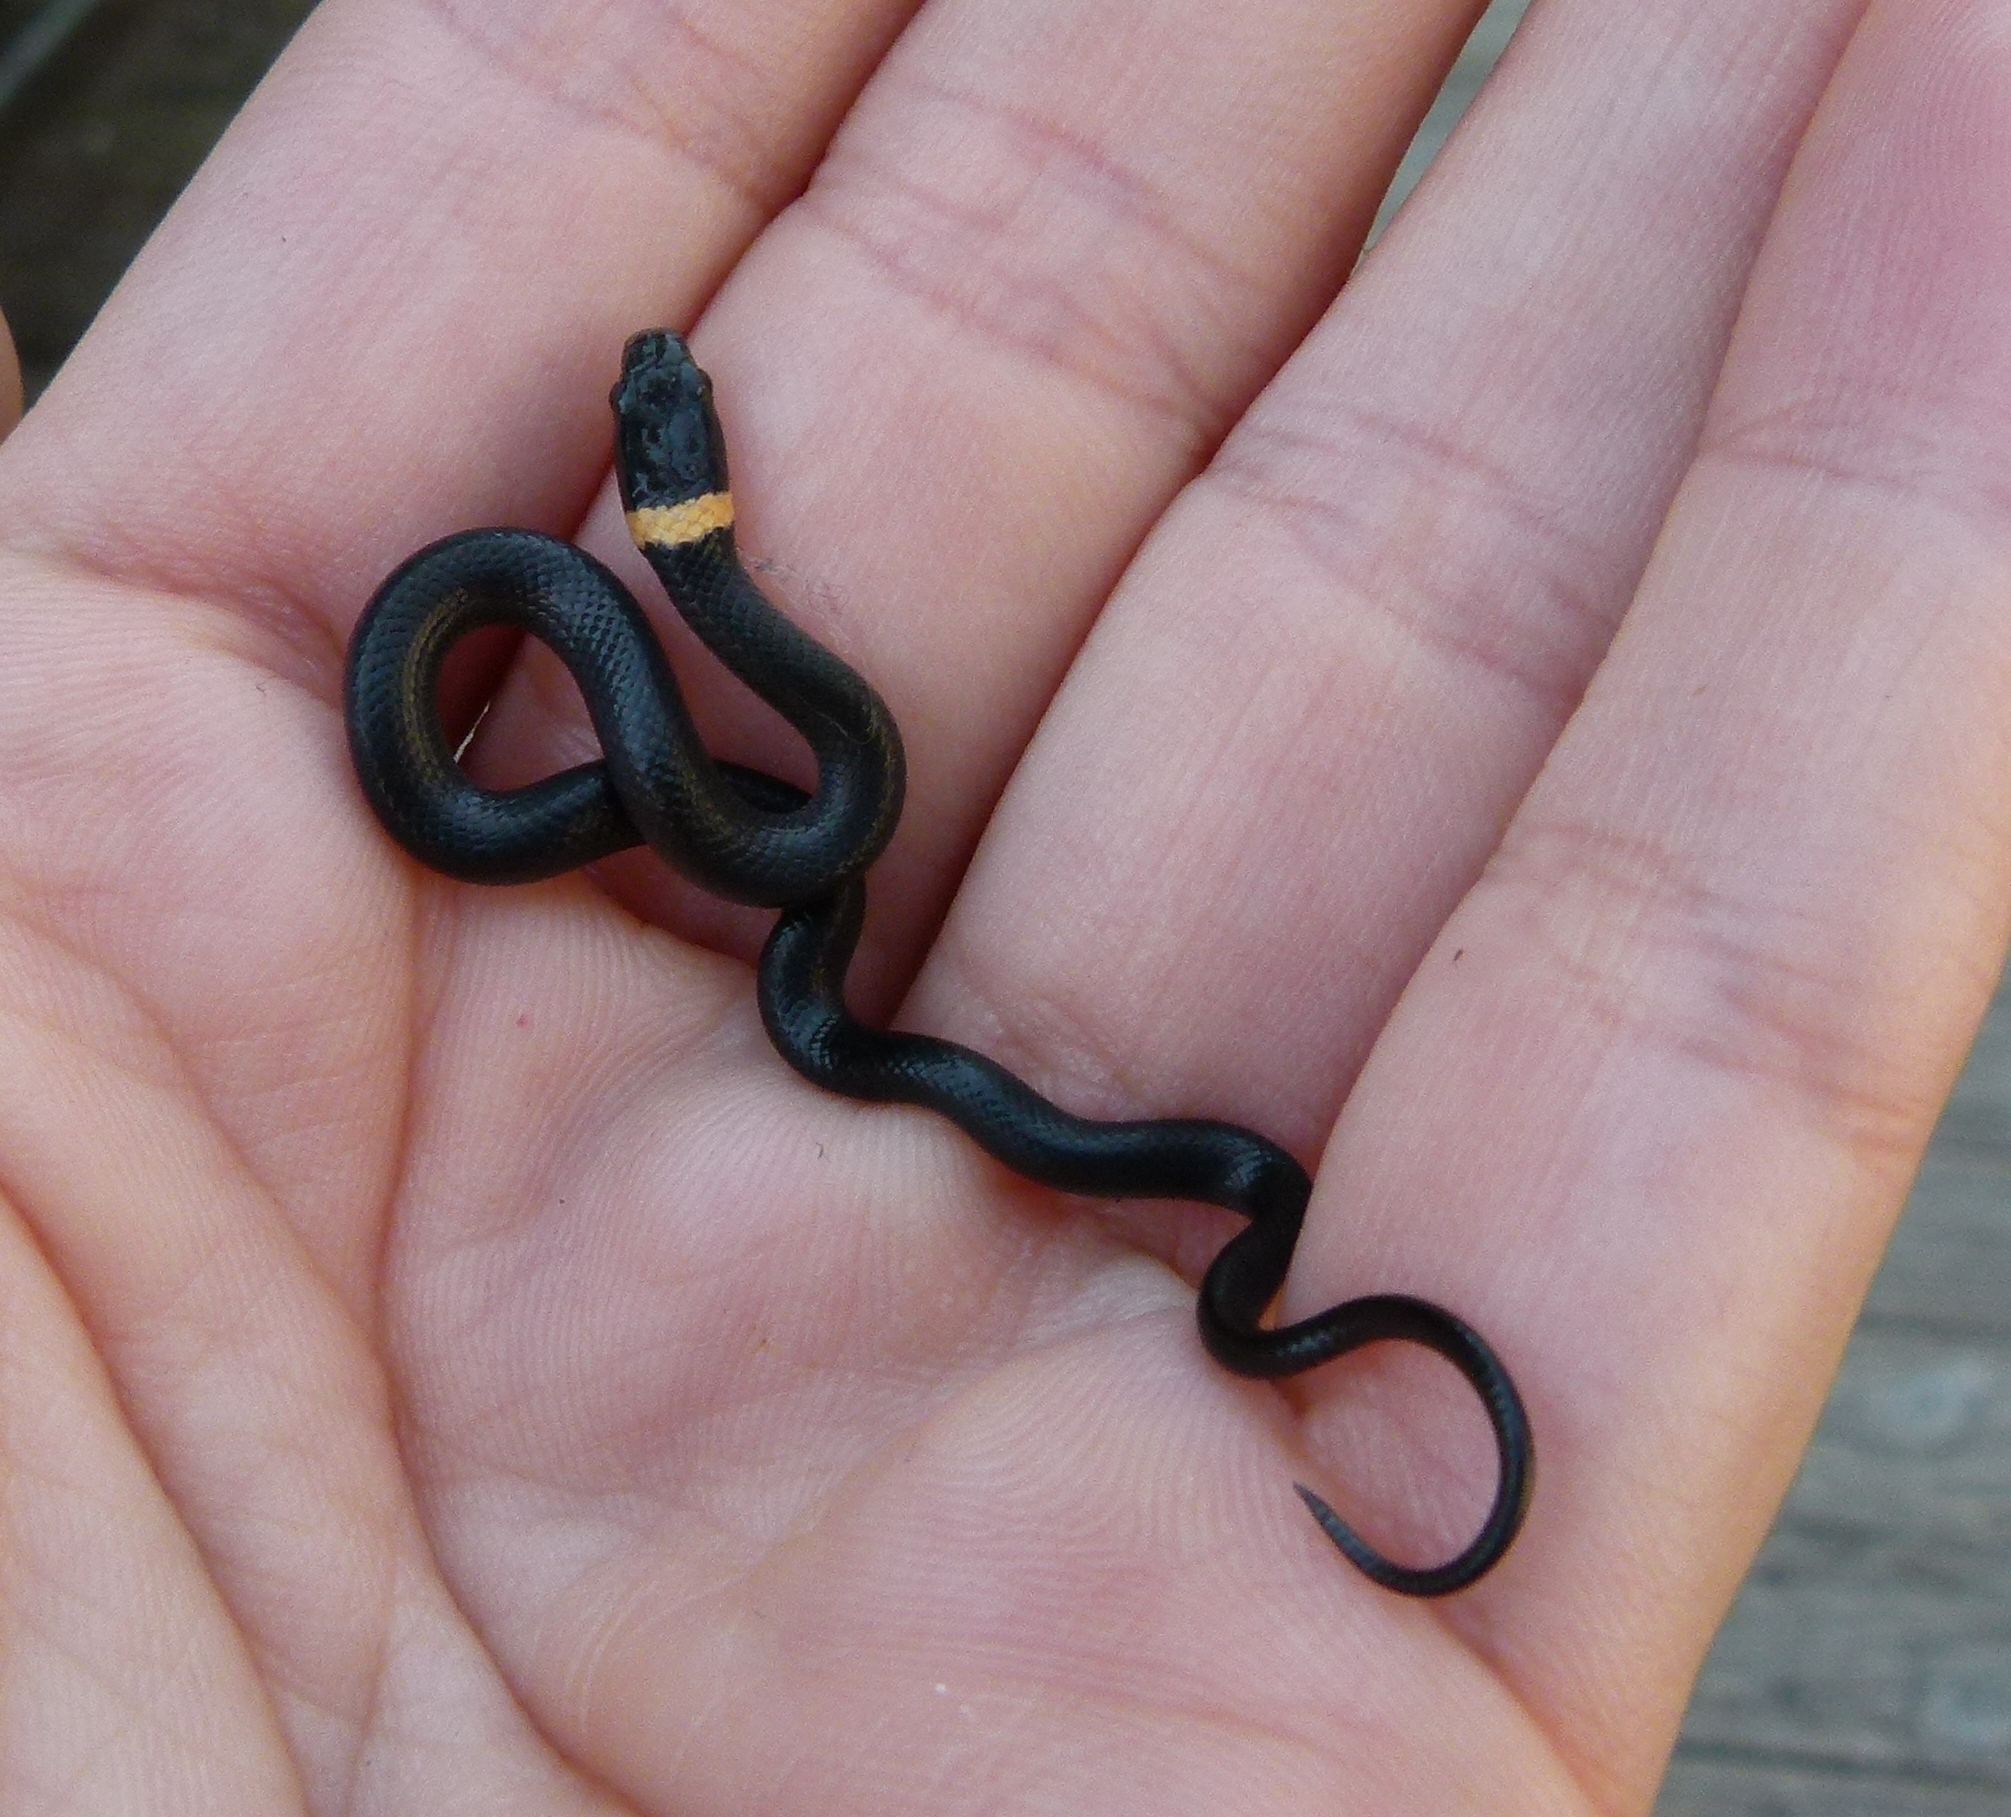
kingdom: Animalia
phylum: Chordata
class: Squamata
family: Colubridae
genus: Diadophis
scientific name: Diadophis punctatus
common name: Ringneck snake
